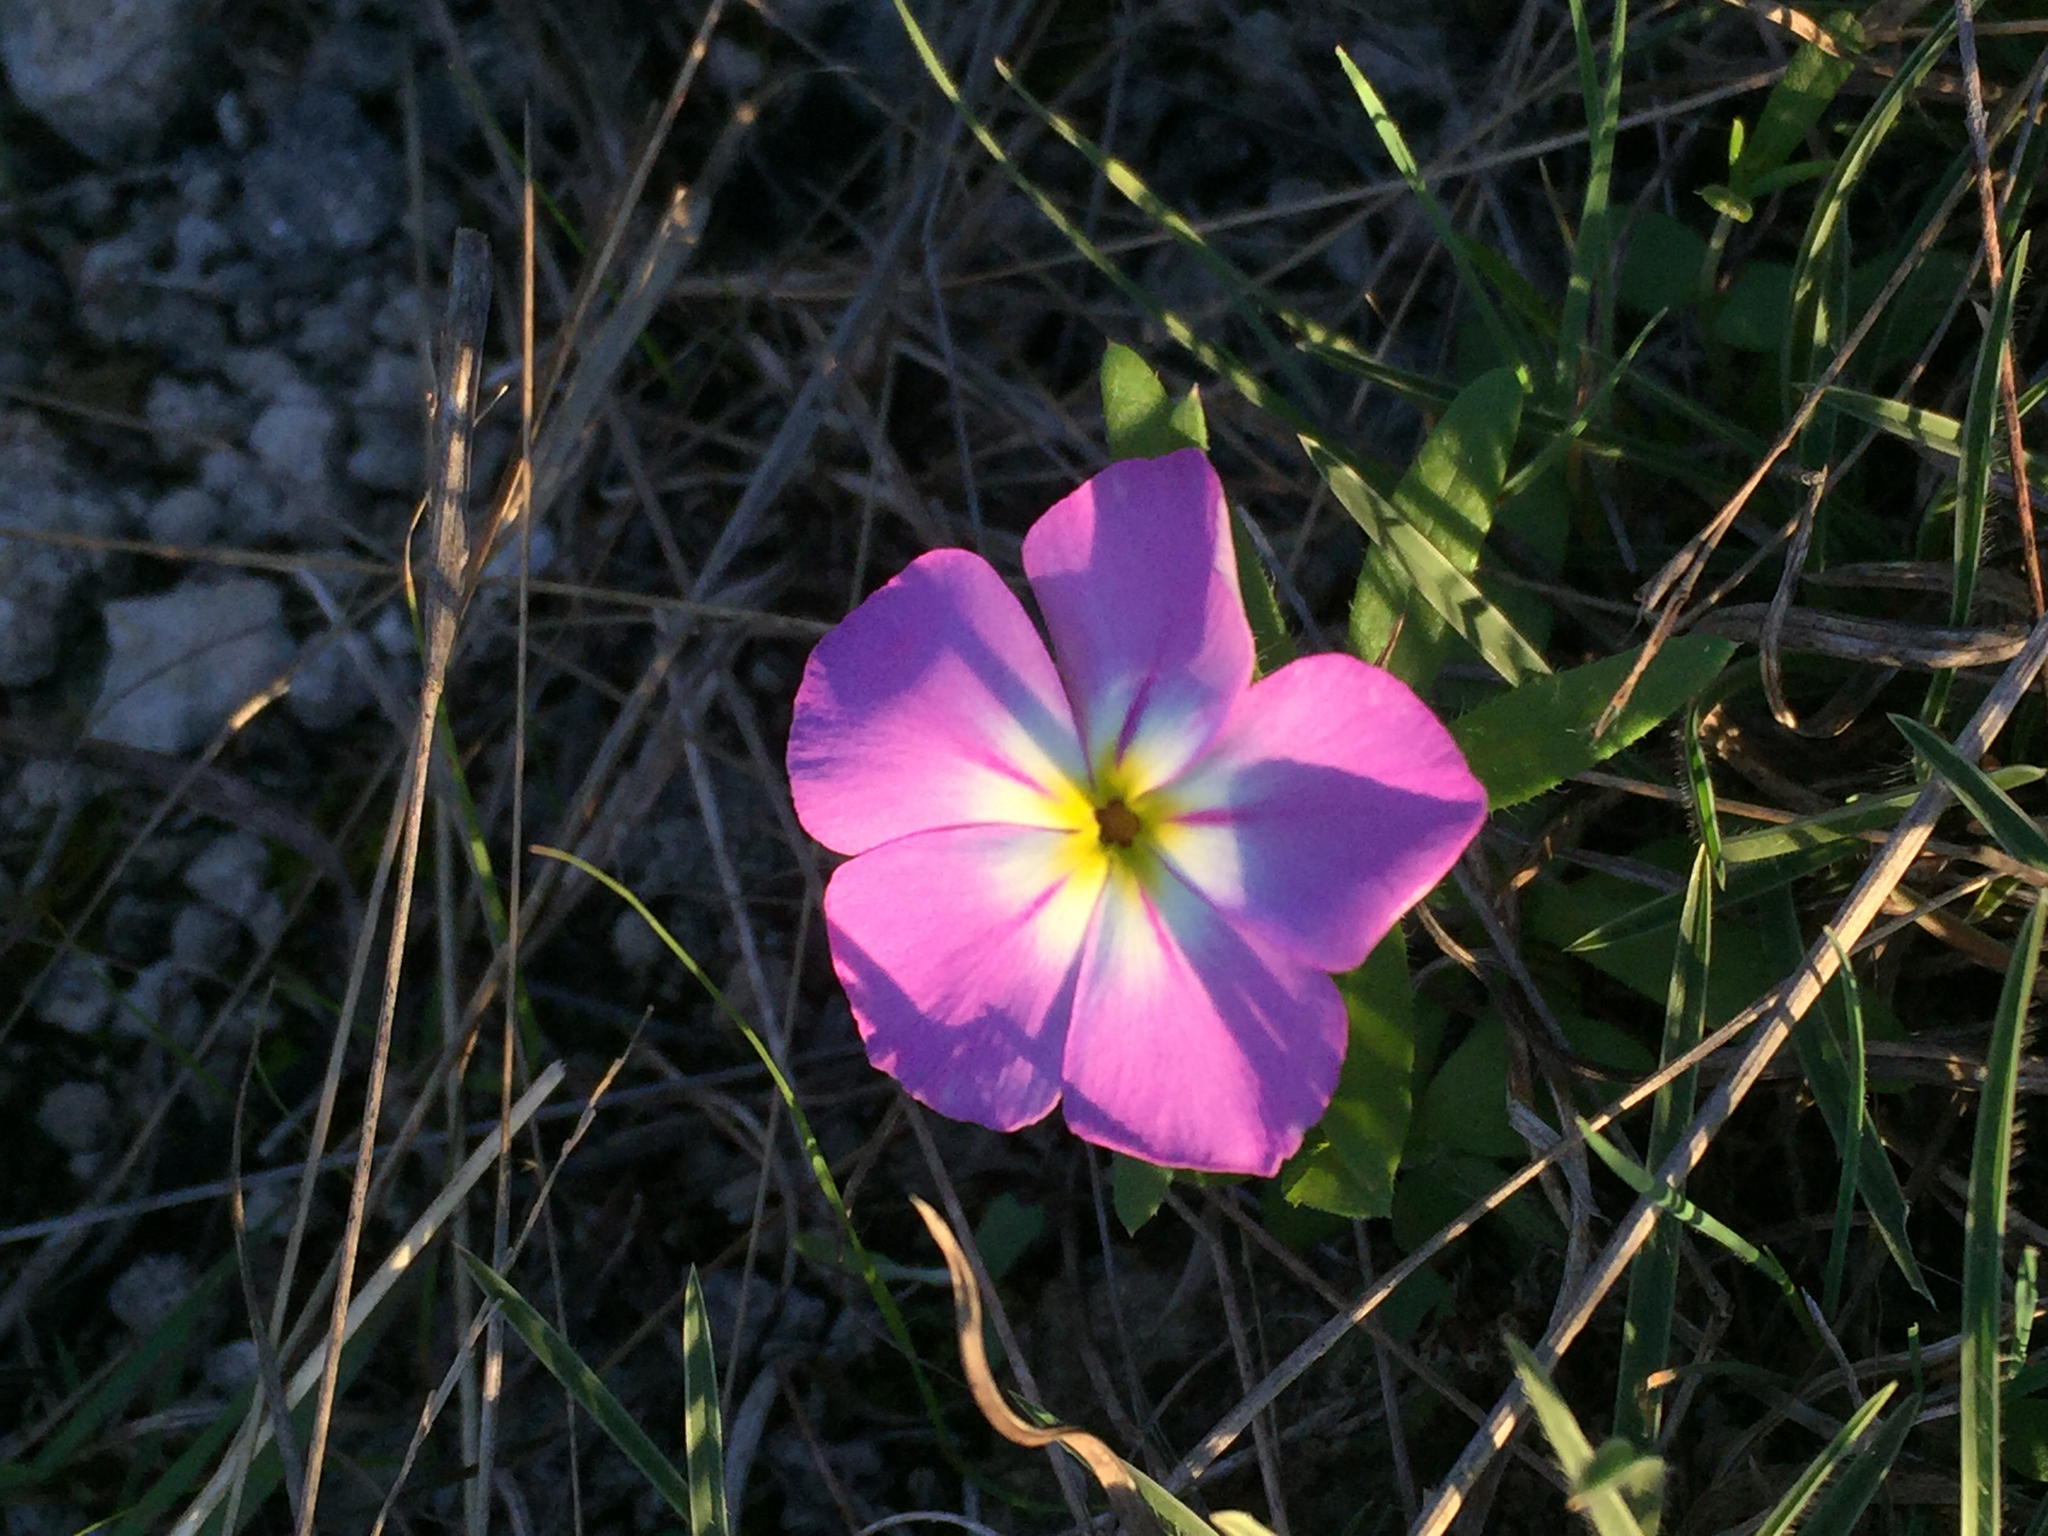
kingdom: Plantae
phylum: Tracheophyta
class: Magnoliopsida
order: Ericales
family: Polemoniaceae
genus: Phlox
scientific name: Phlox roemeriana
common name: Roemer's phlox
